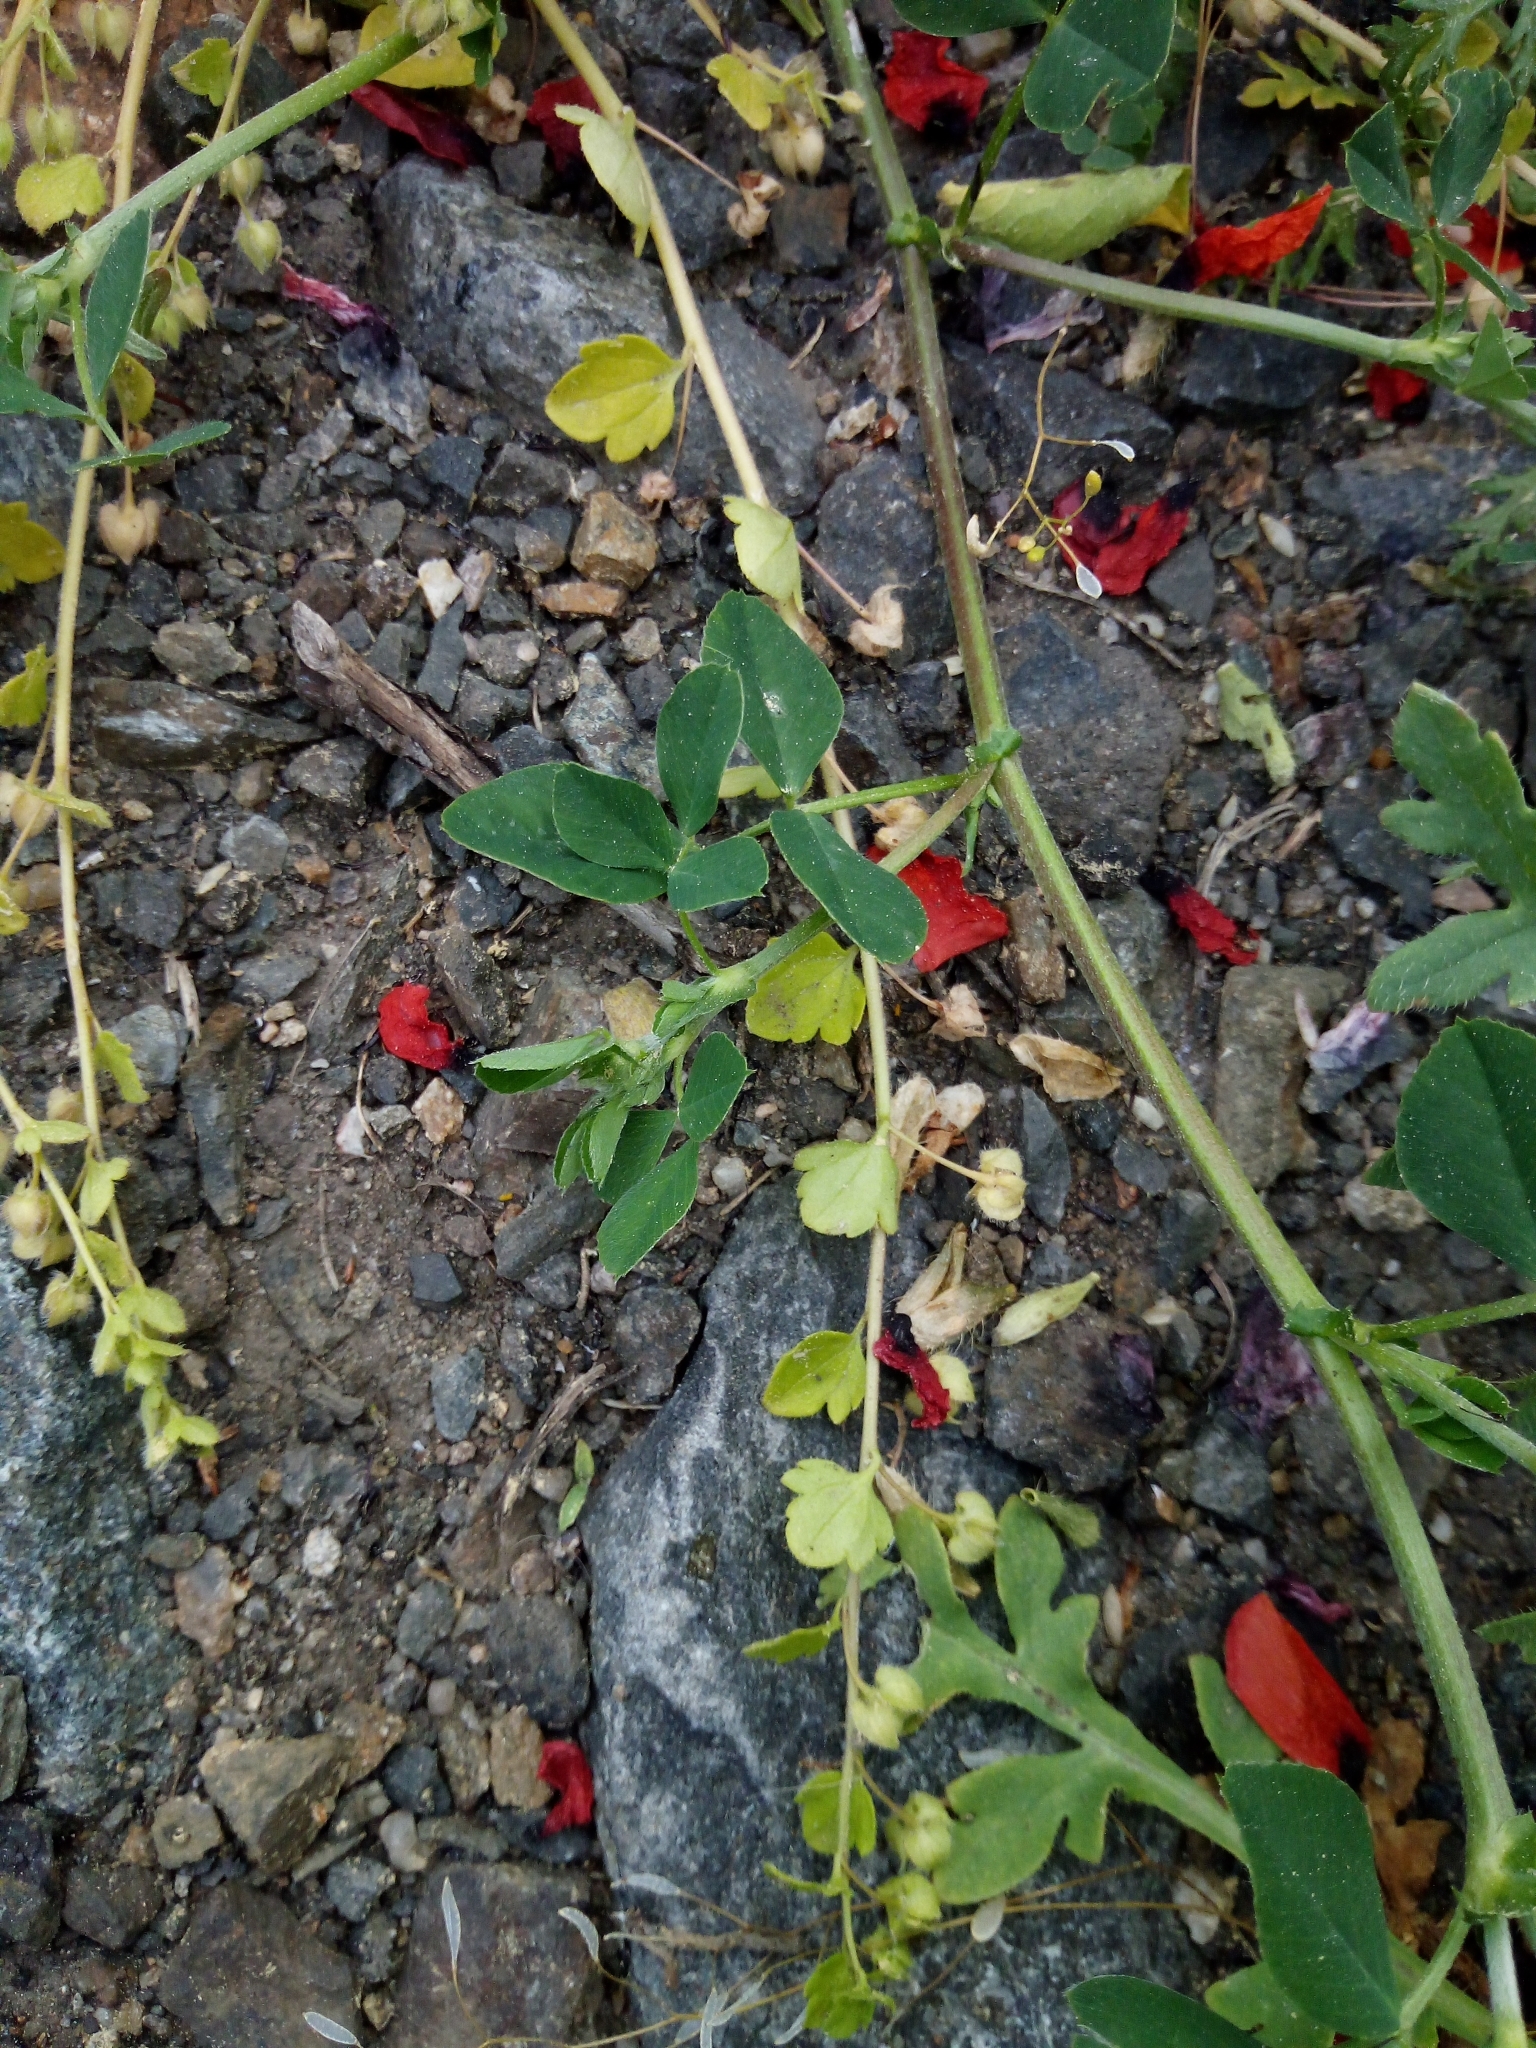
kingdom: Plantae
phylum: Tracheophyta
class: Magnoliopsida
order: Lamiales
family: Plantaginaceae
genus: Veronica
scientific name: Veronica sublobata
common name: False ivy-leaved speedwell
